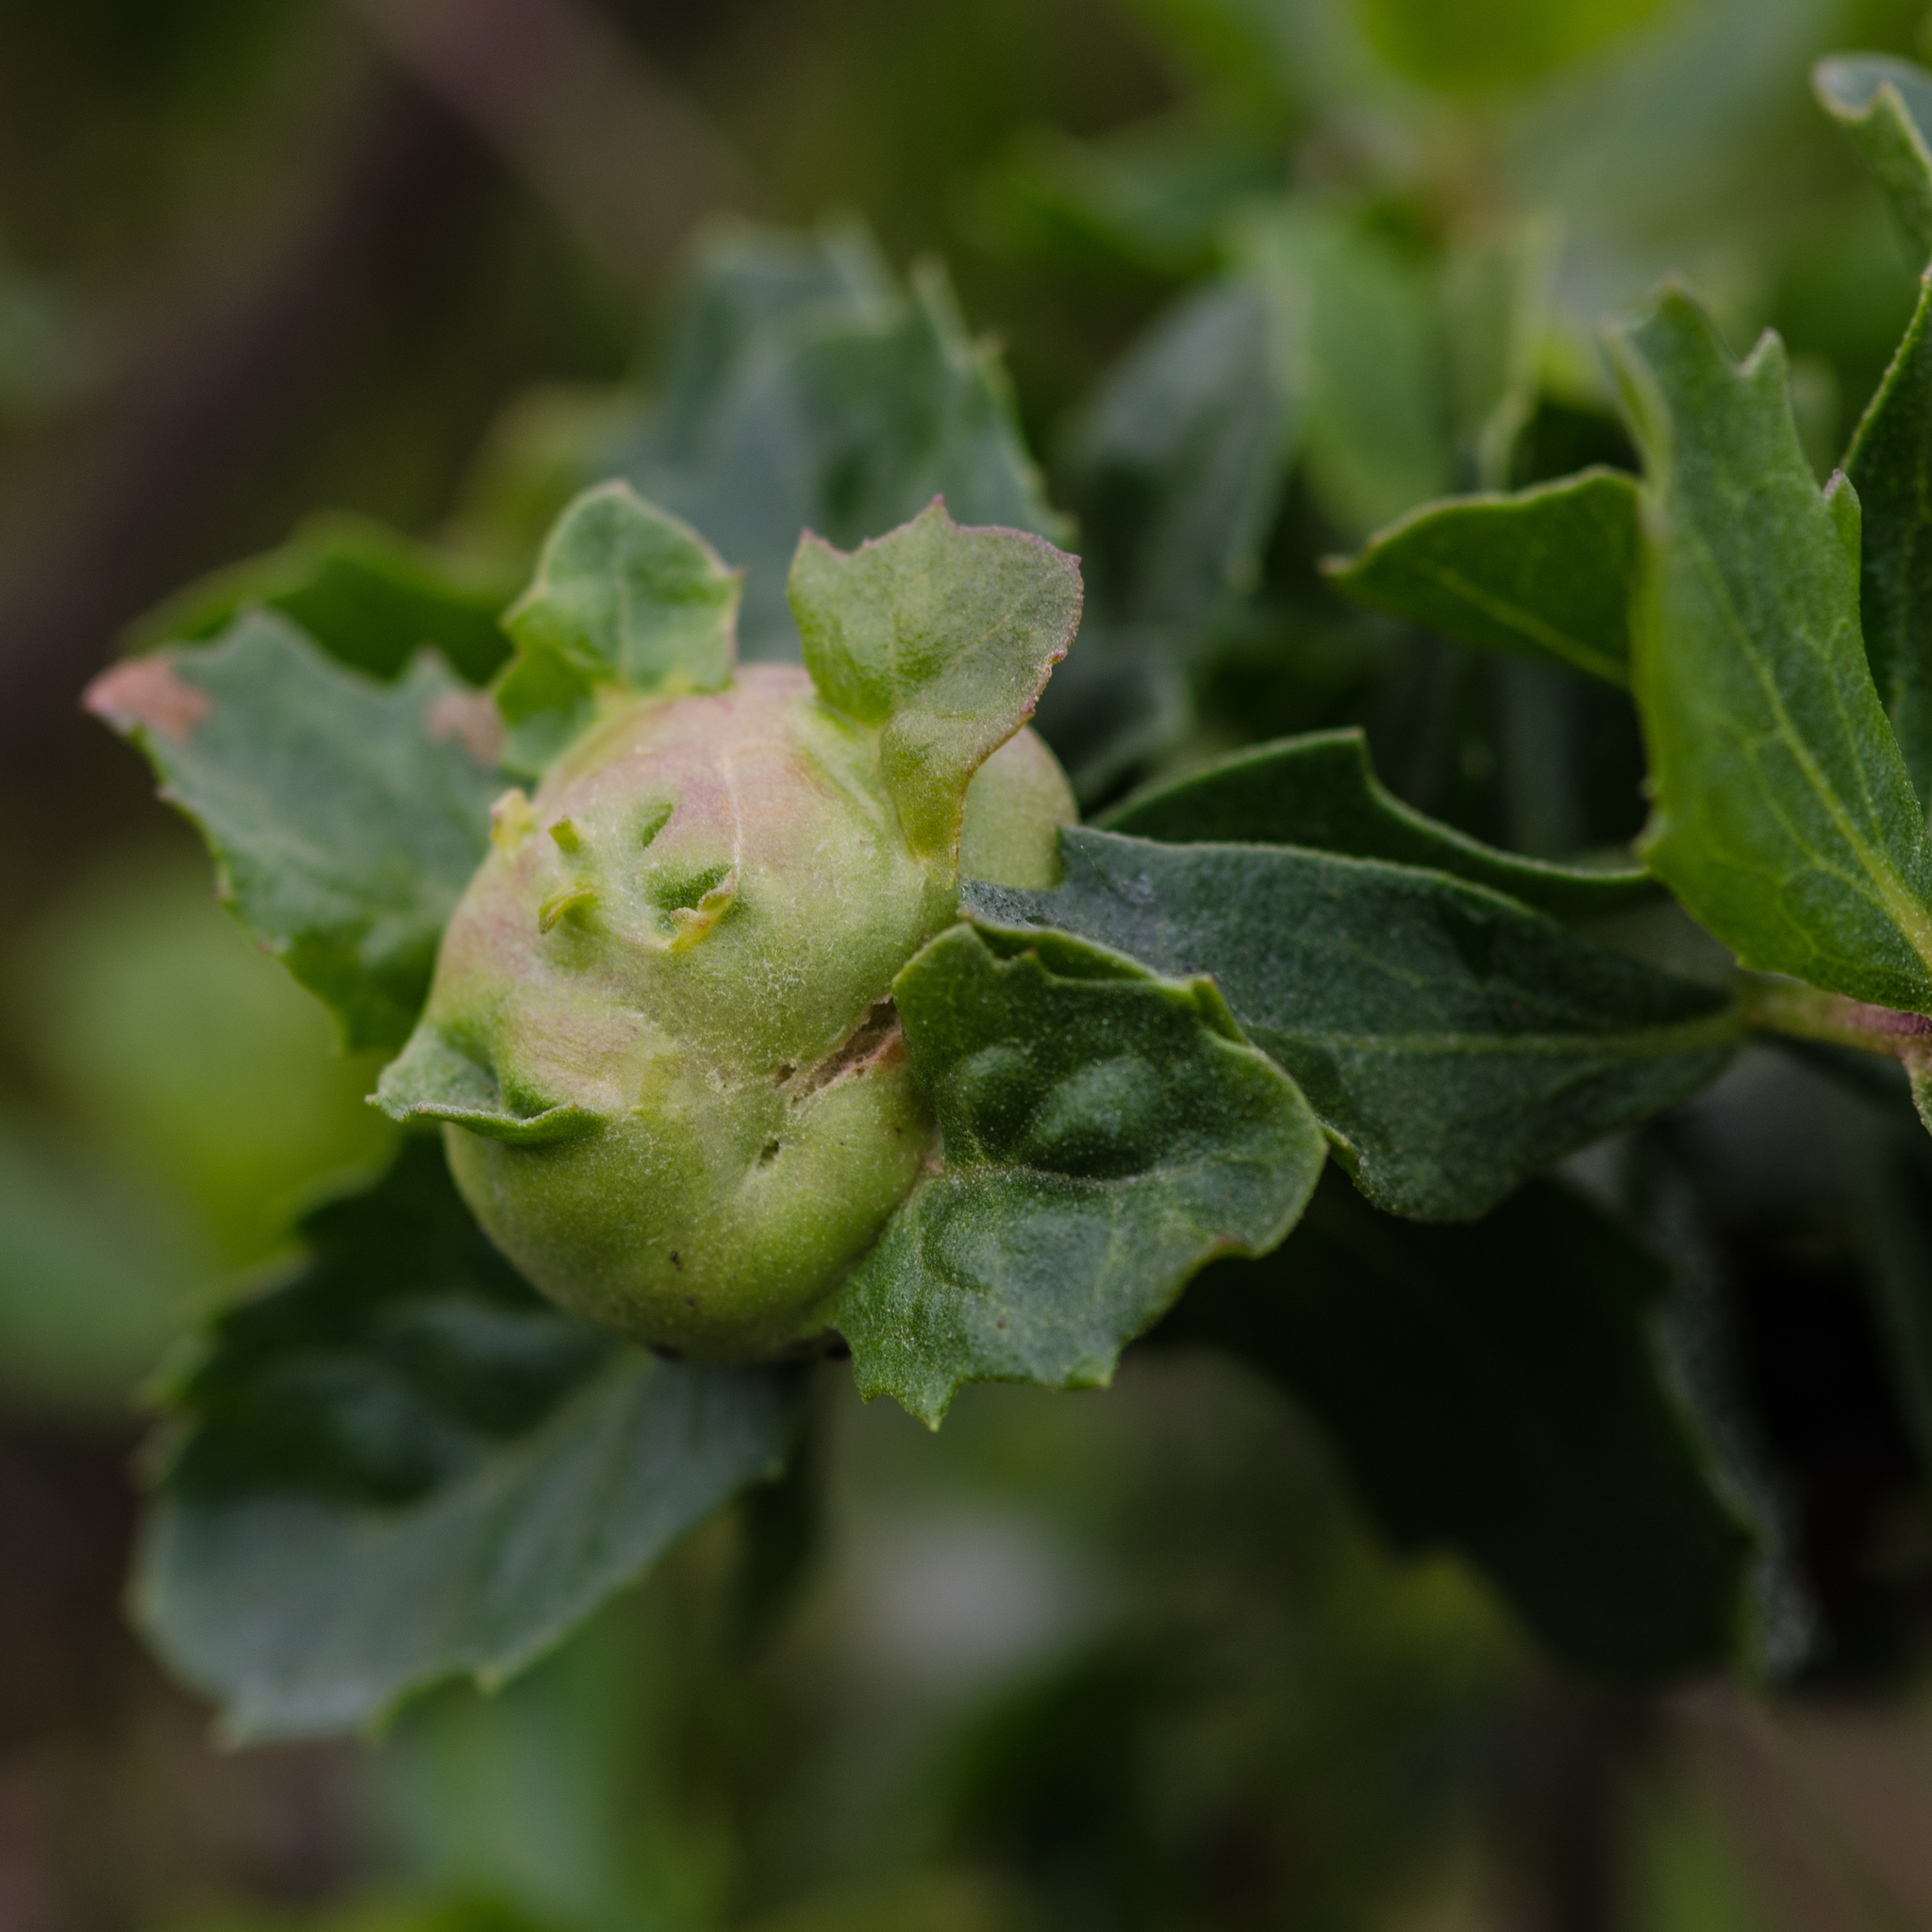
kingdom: Animalia
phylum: Arthropoda
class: Insecta
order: Diptera
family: Cecidomyiidae
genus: Rhopalomyia
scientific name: Rhopalomyia californica
